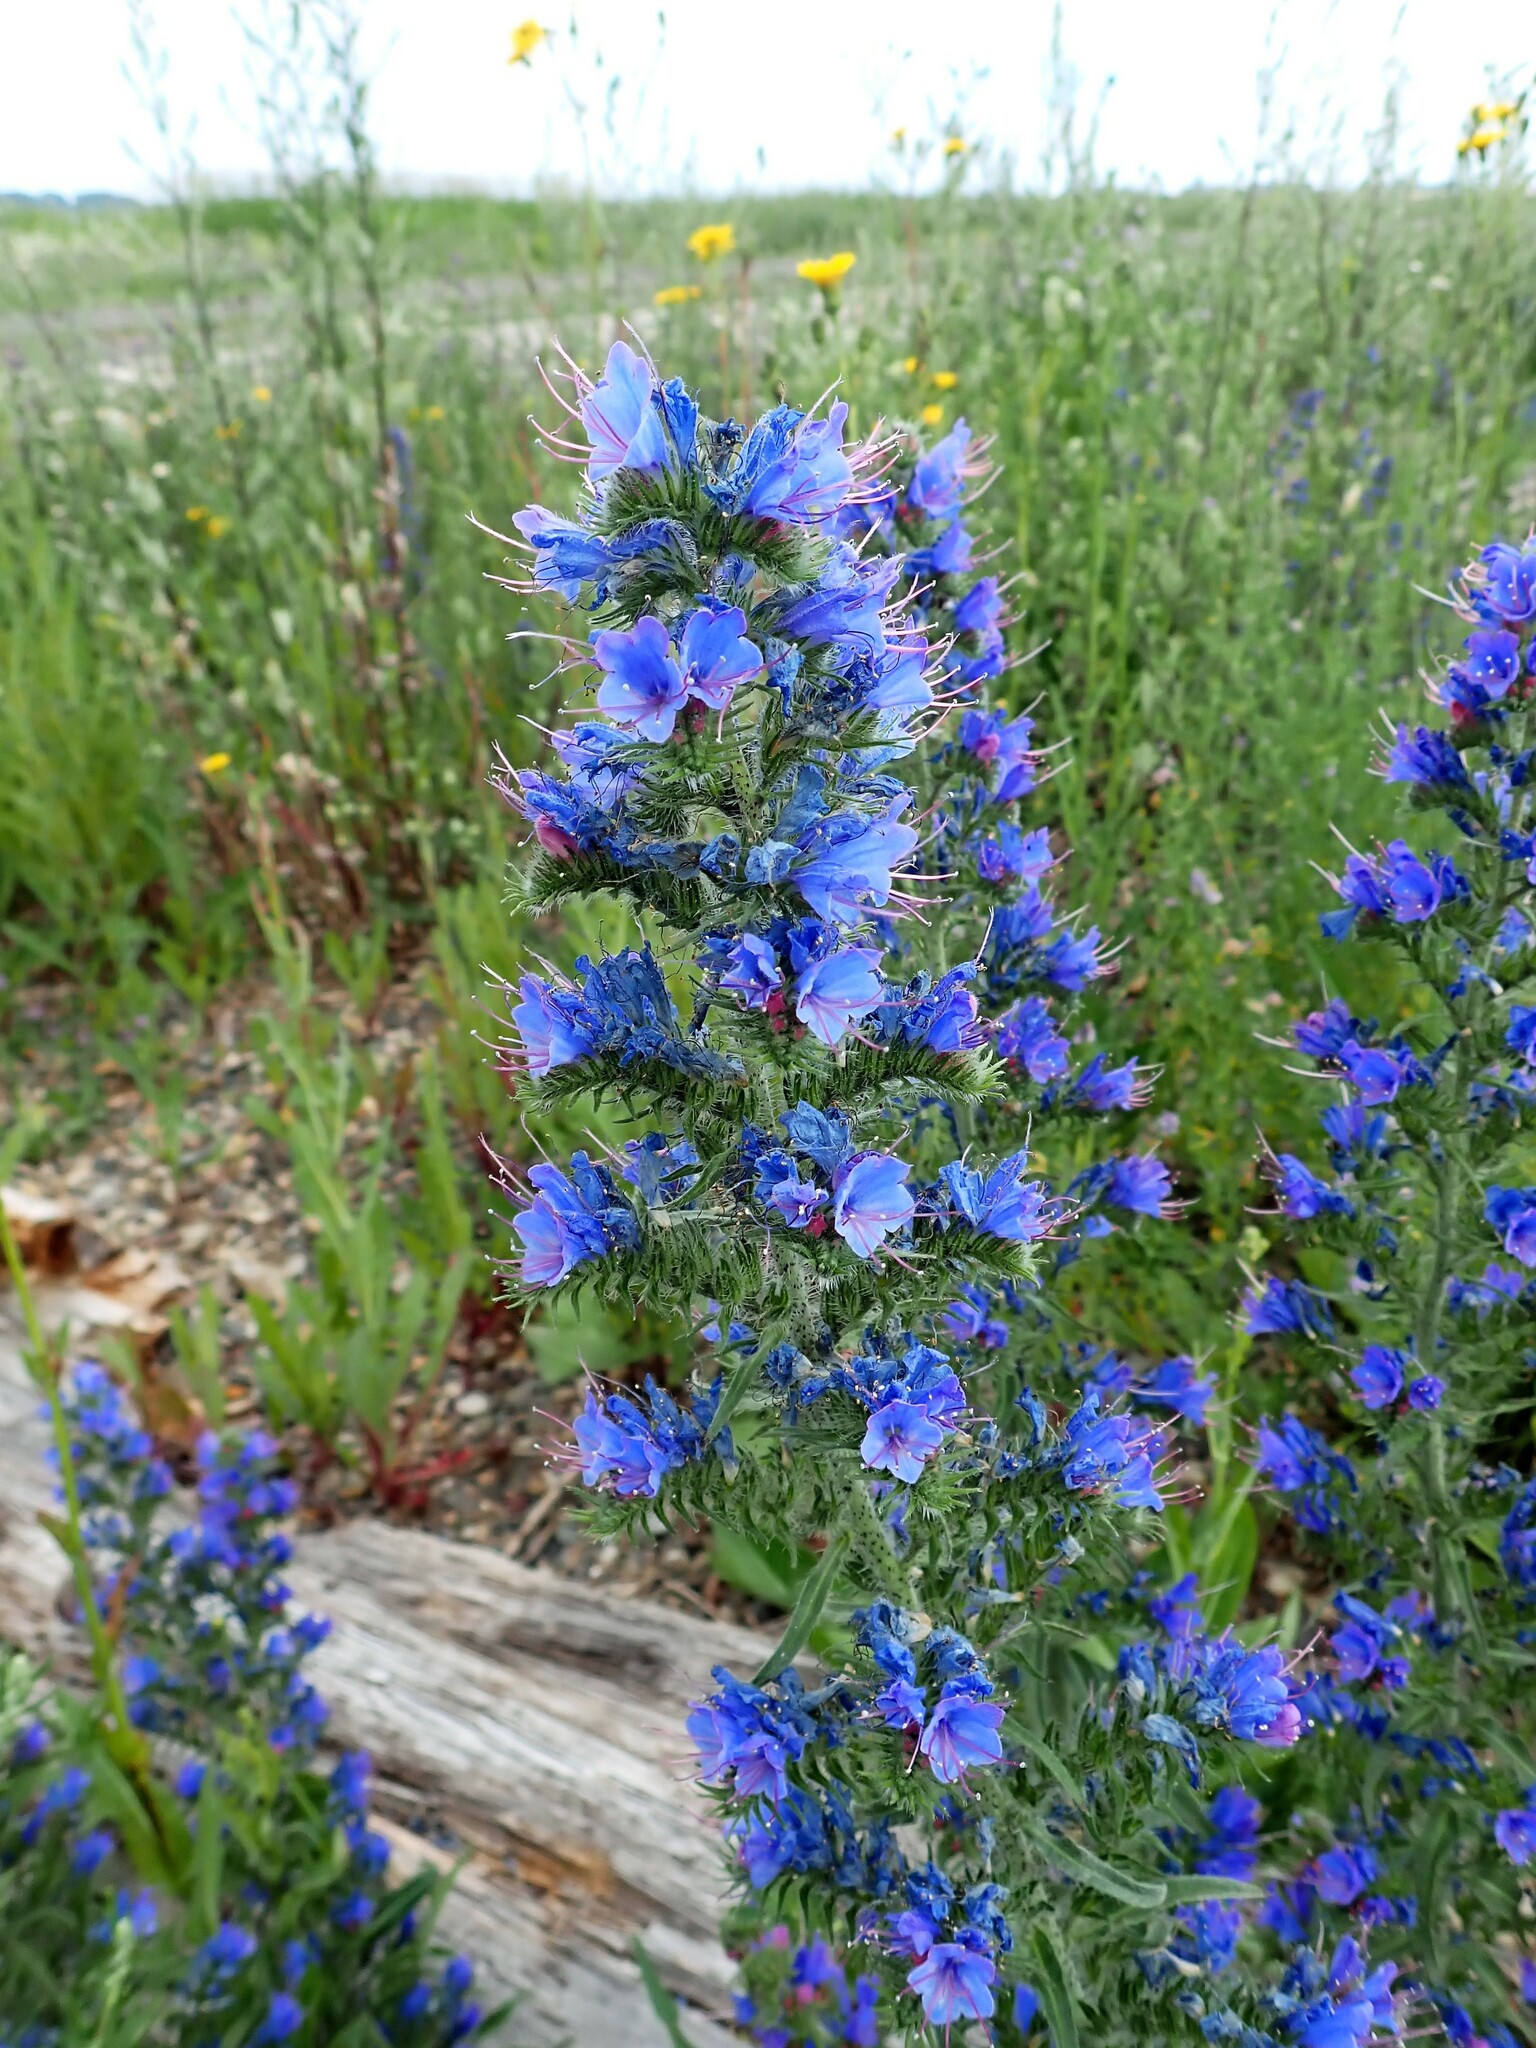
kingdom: Plantae
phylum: Tracheophyta
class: Magnoliopsida
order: Boraginales
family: Boraginaceae
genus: Echium
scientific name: Echium vulgare
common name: Common viper's bugloss
